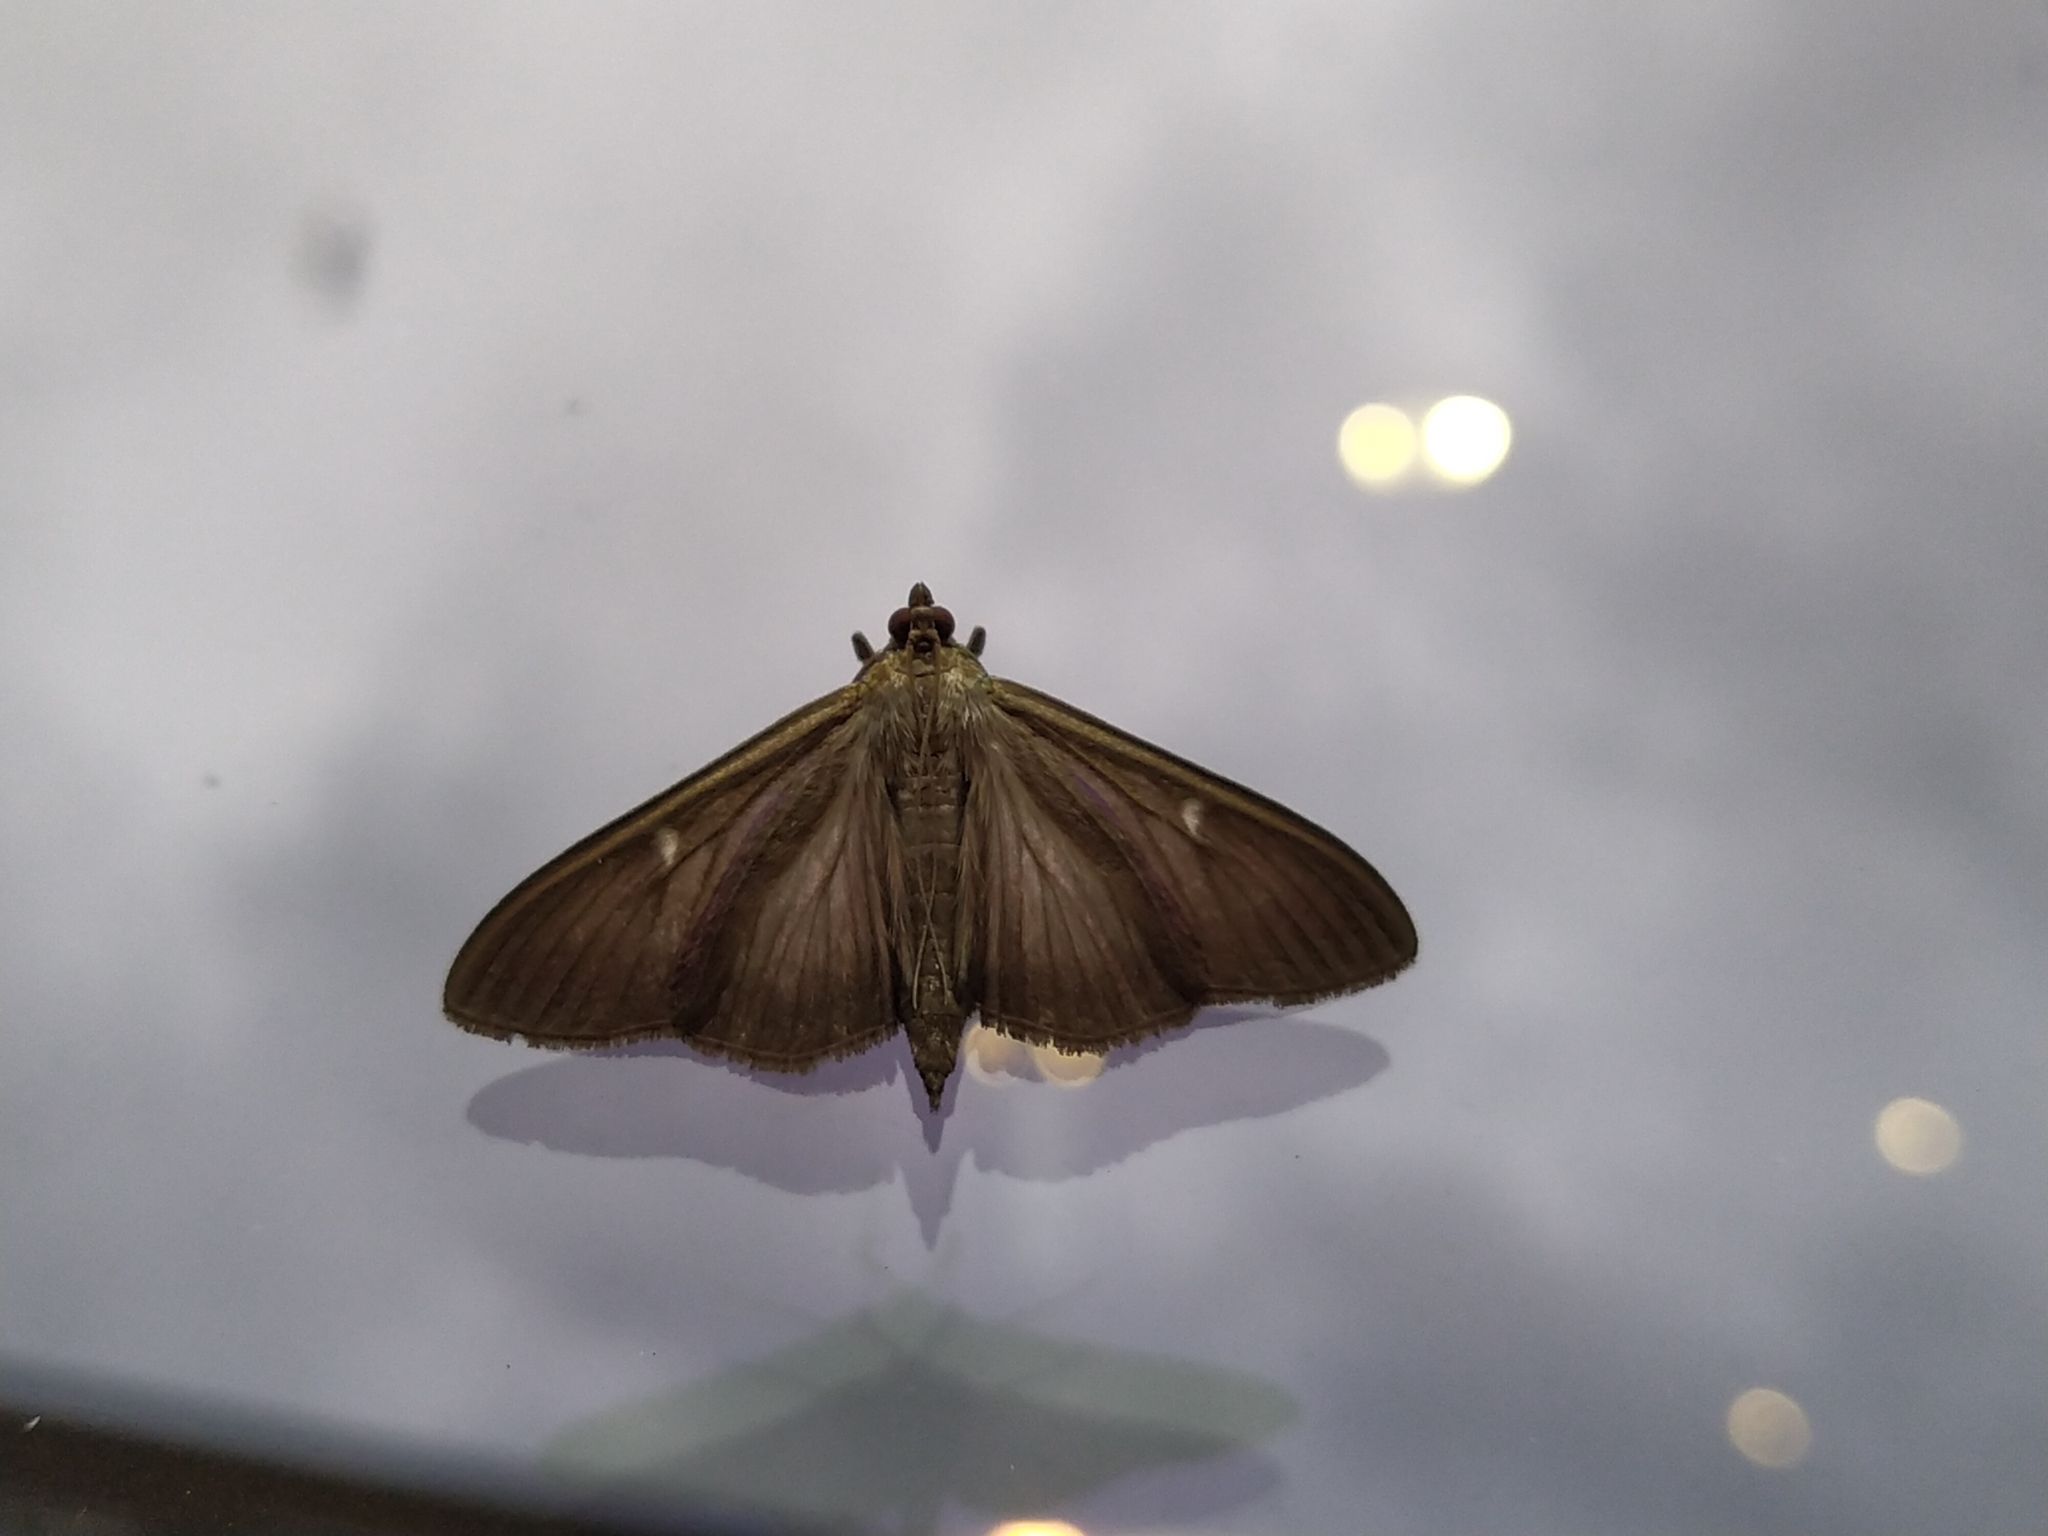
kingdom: Animalia
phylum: Arthropoda
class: Insecta
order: Lepidoptera
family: Crambidae
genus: Cydalima
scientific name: Cydalima perspectalis
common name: Box tree moth
